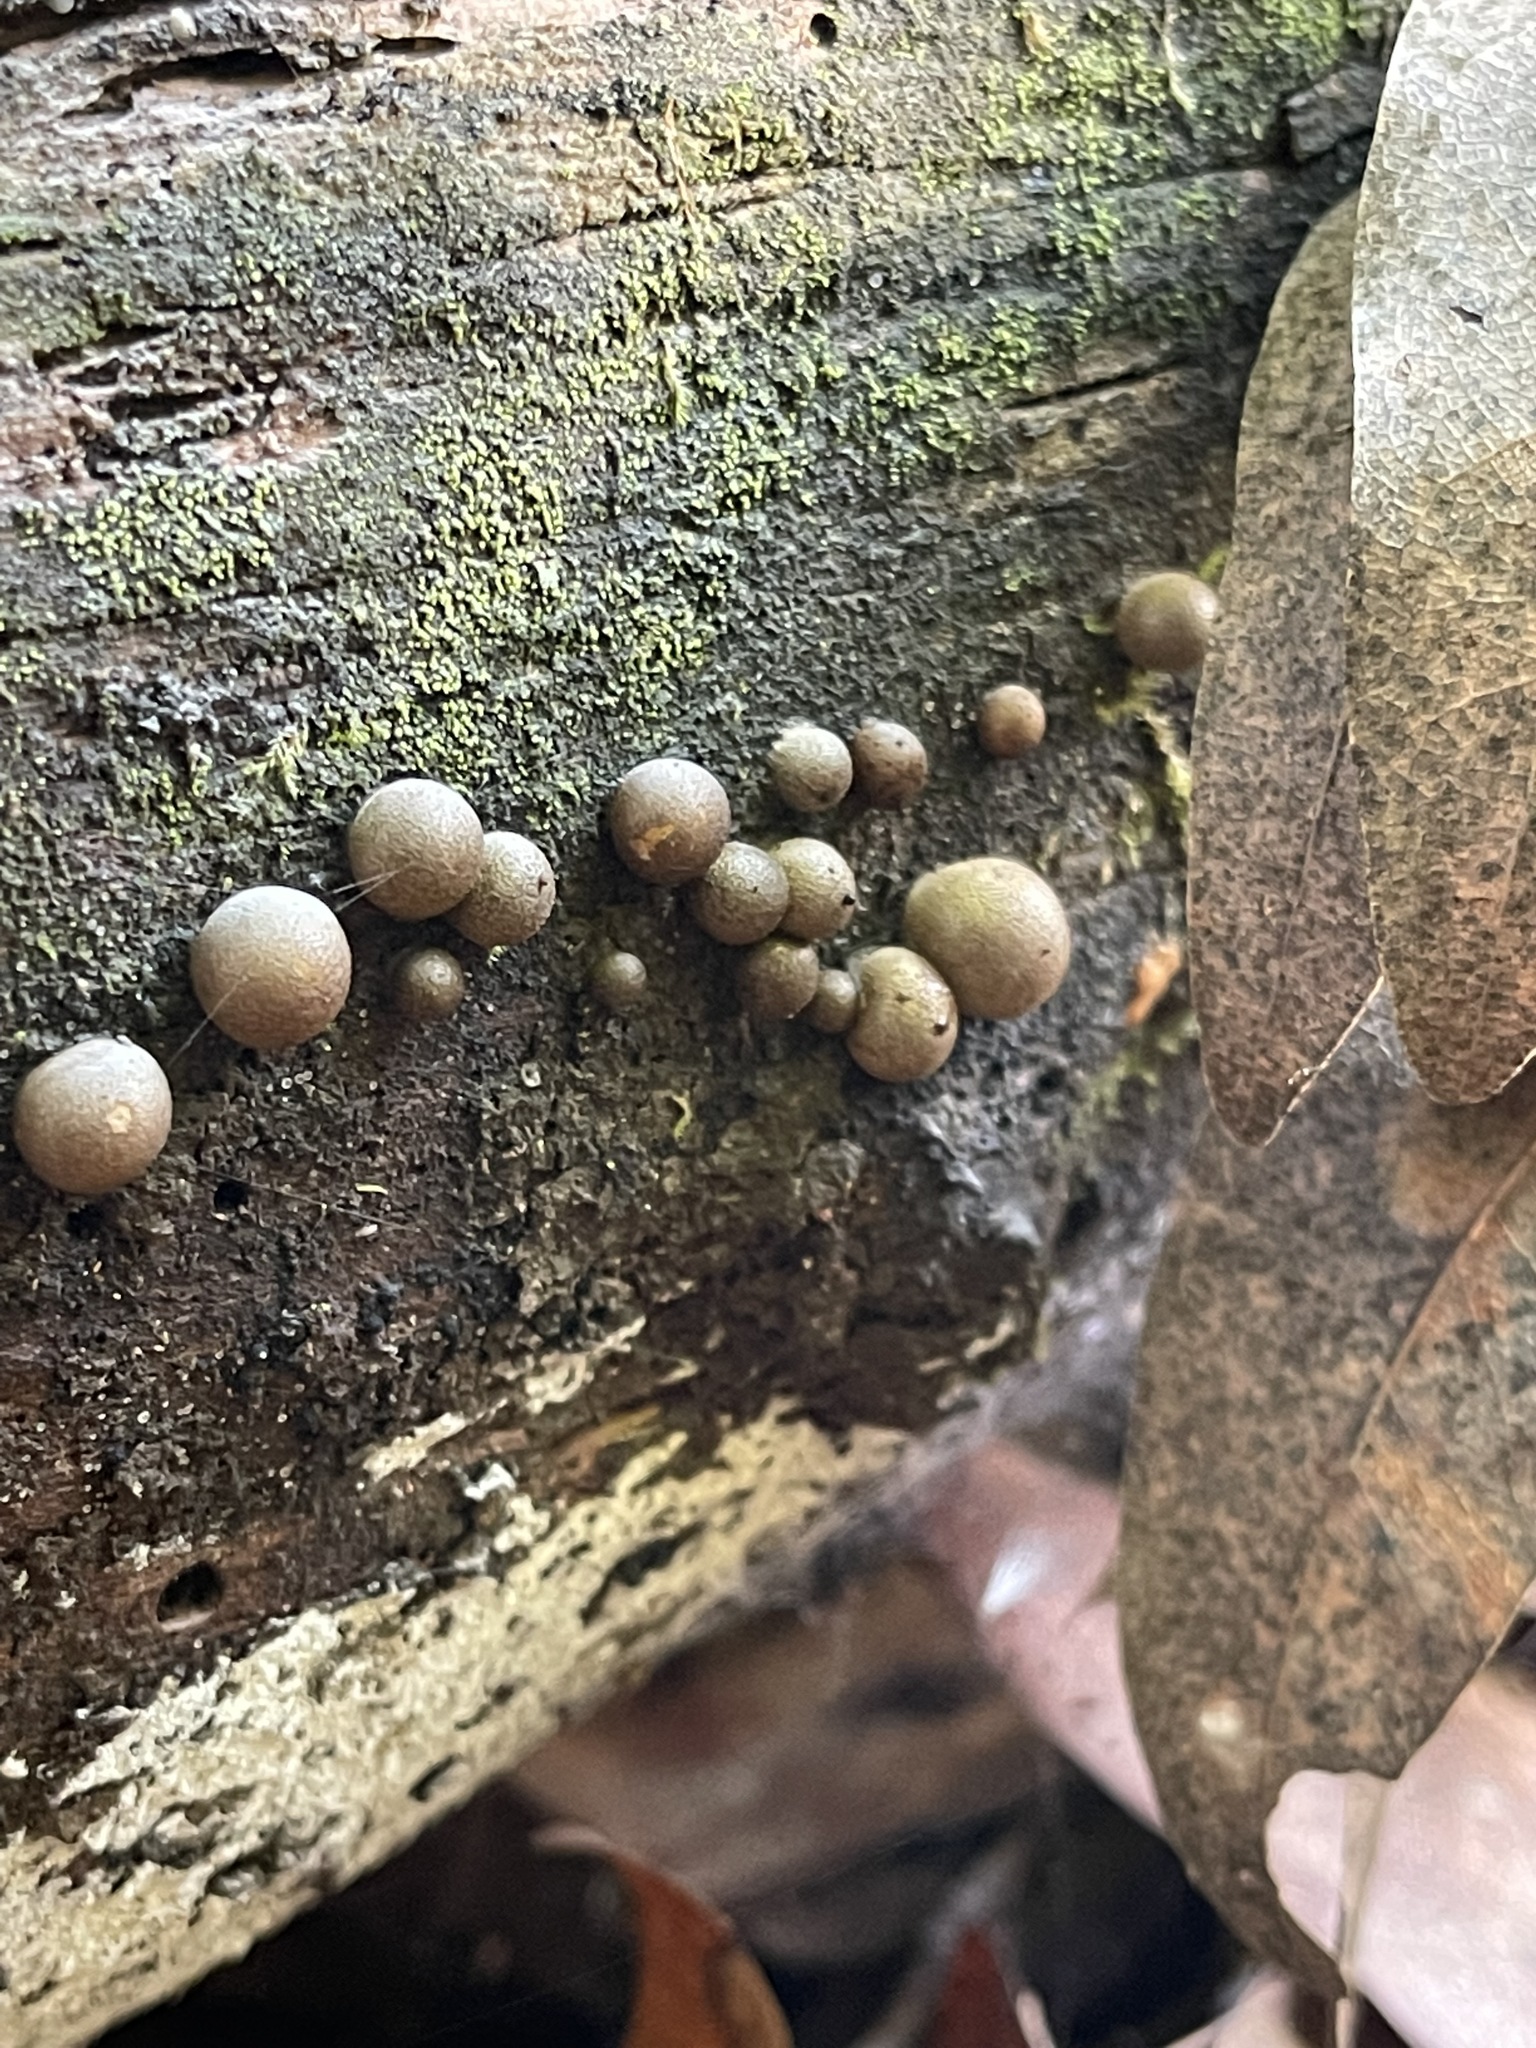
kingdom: Protozoa
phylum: Mycetozoa
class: Myxomycetes
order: Cribrariales
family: Tubiferaceae
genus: Lycogala
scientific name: Lycogala epidendrum
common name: Wolf's milk
